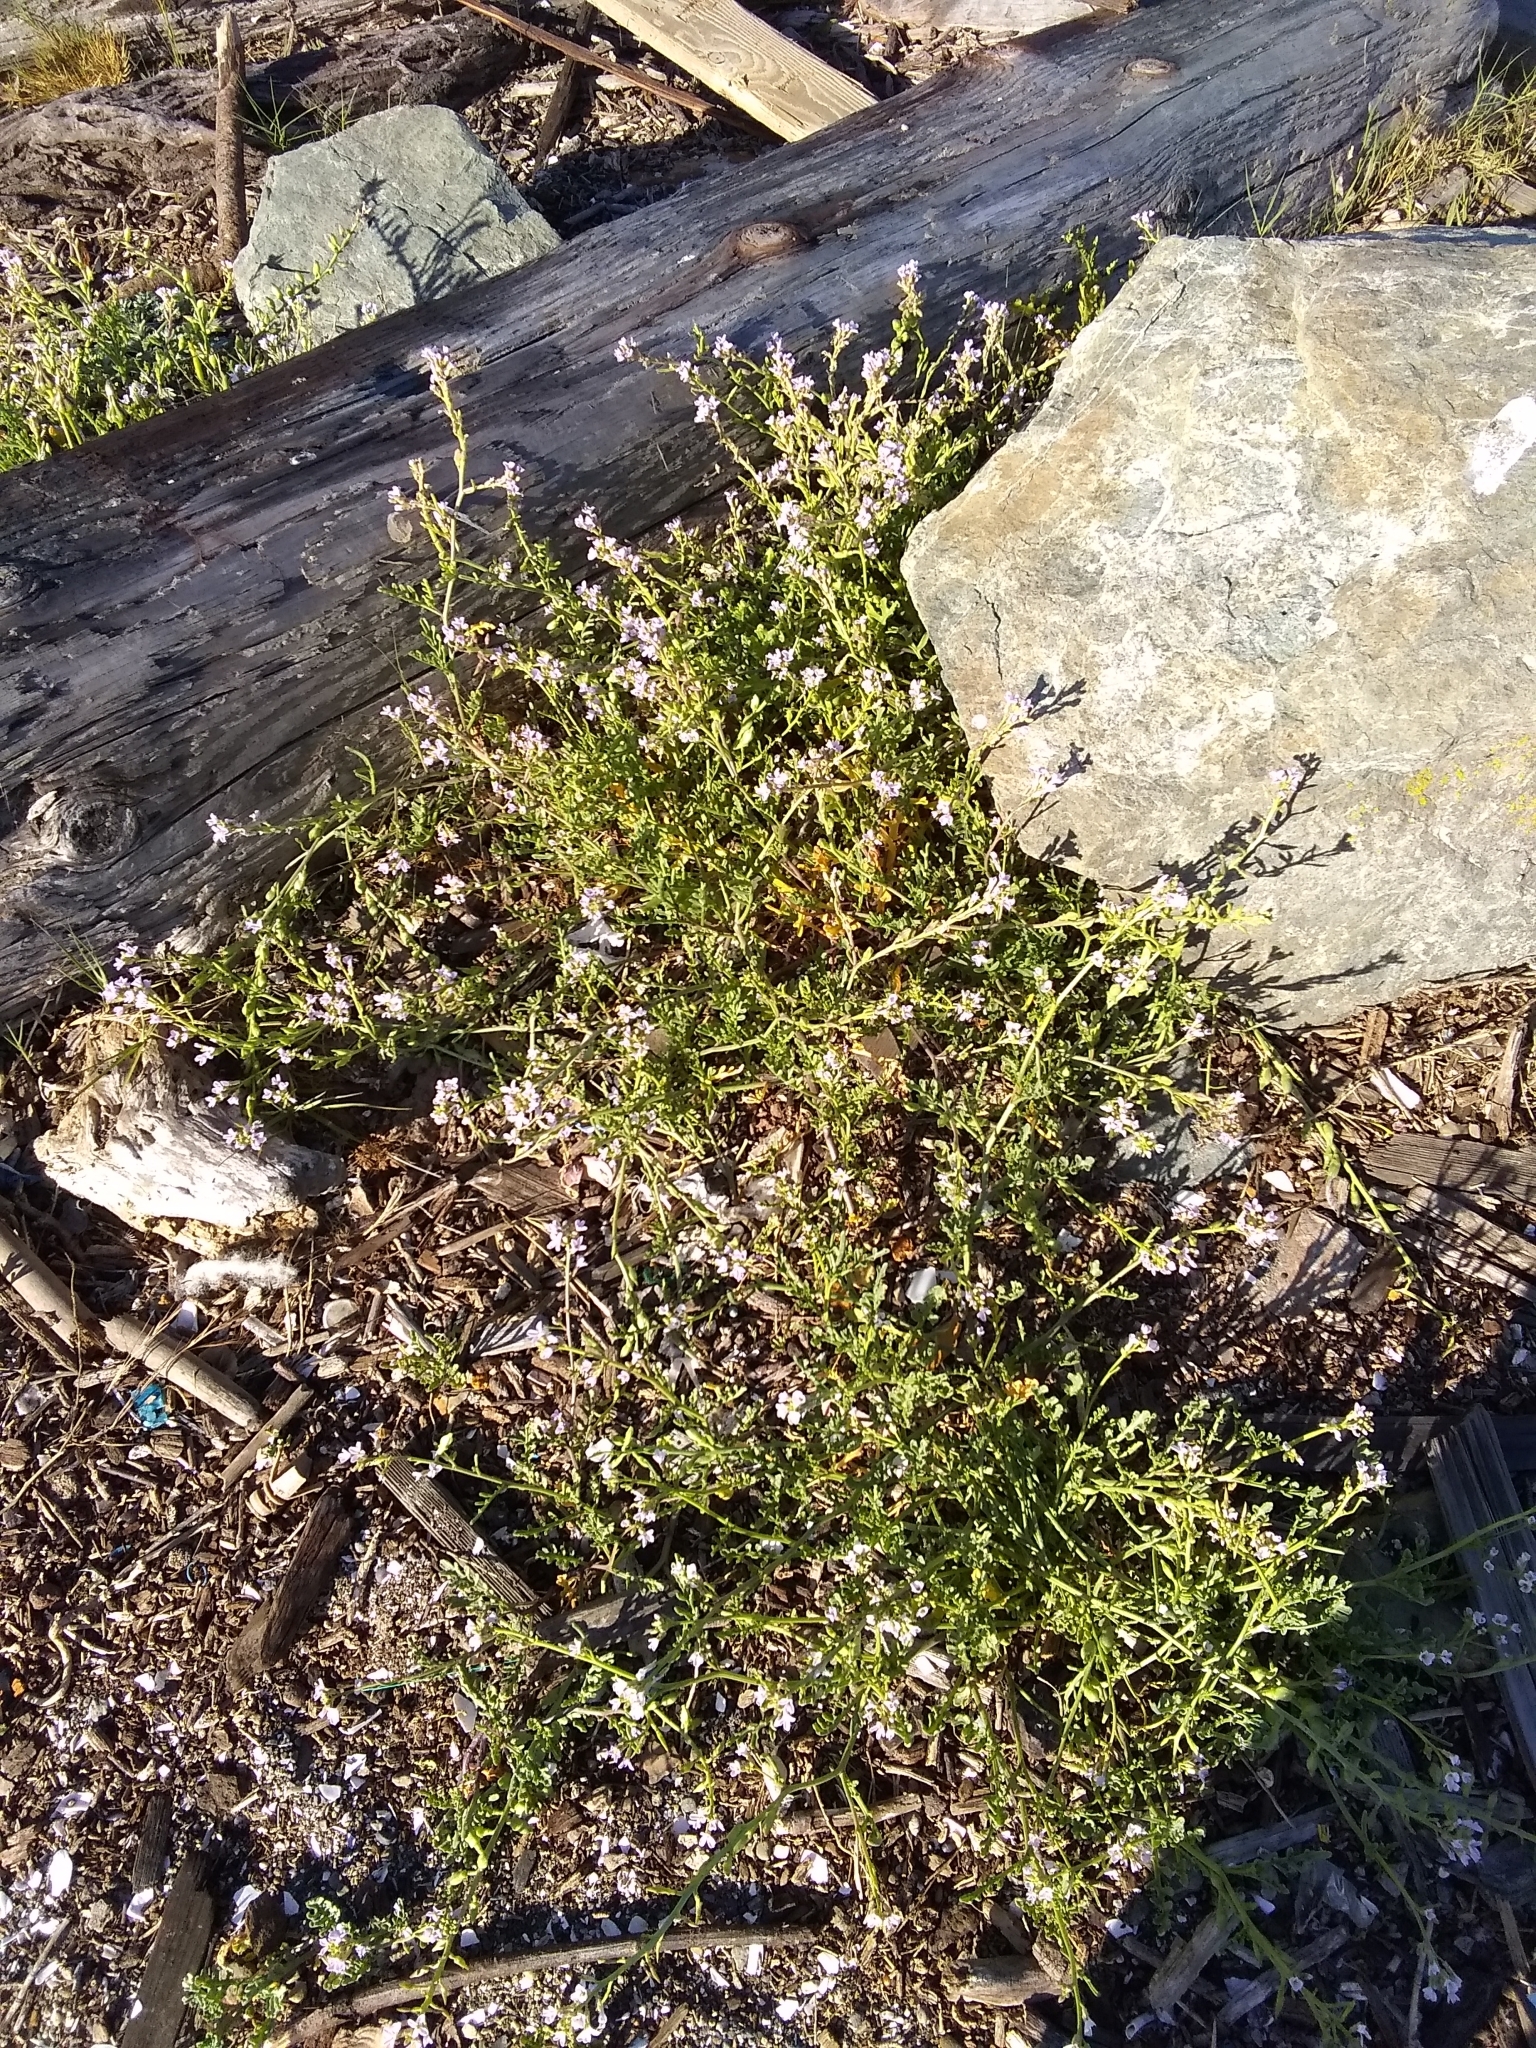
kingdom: Plantae
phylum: Tracheophyta
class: Magnoliopsida
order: Brassicales
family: Brassicaceae
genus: Cakile
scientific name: Cakile maritima
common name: Sea rocket
